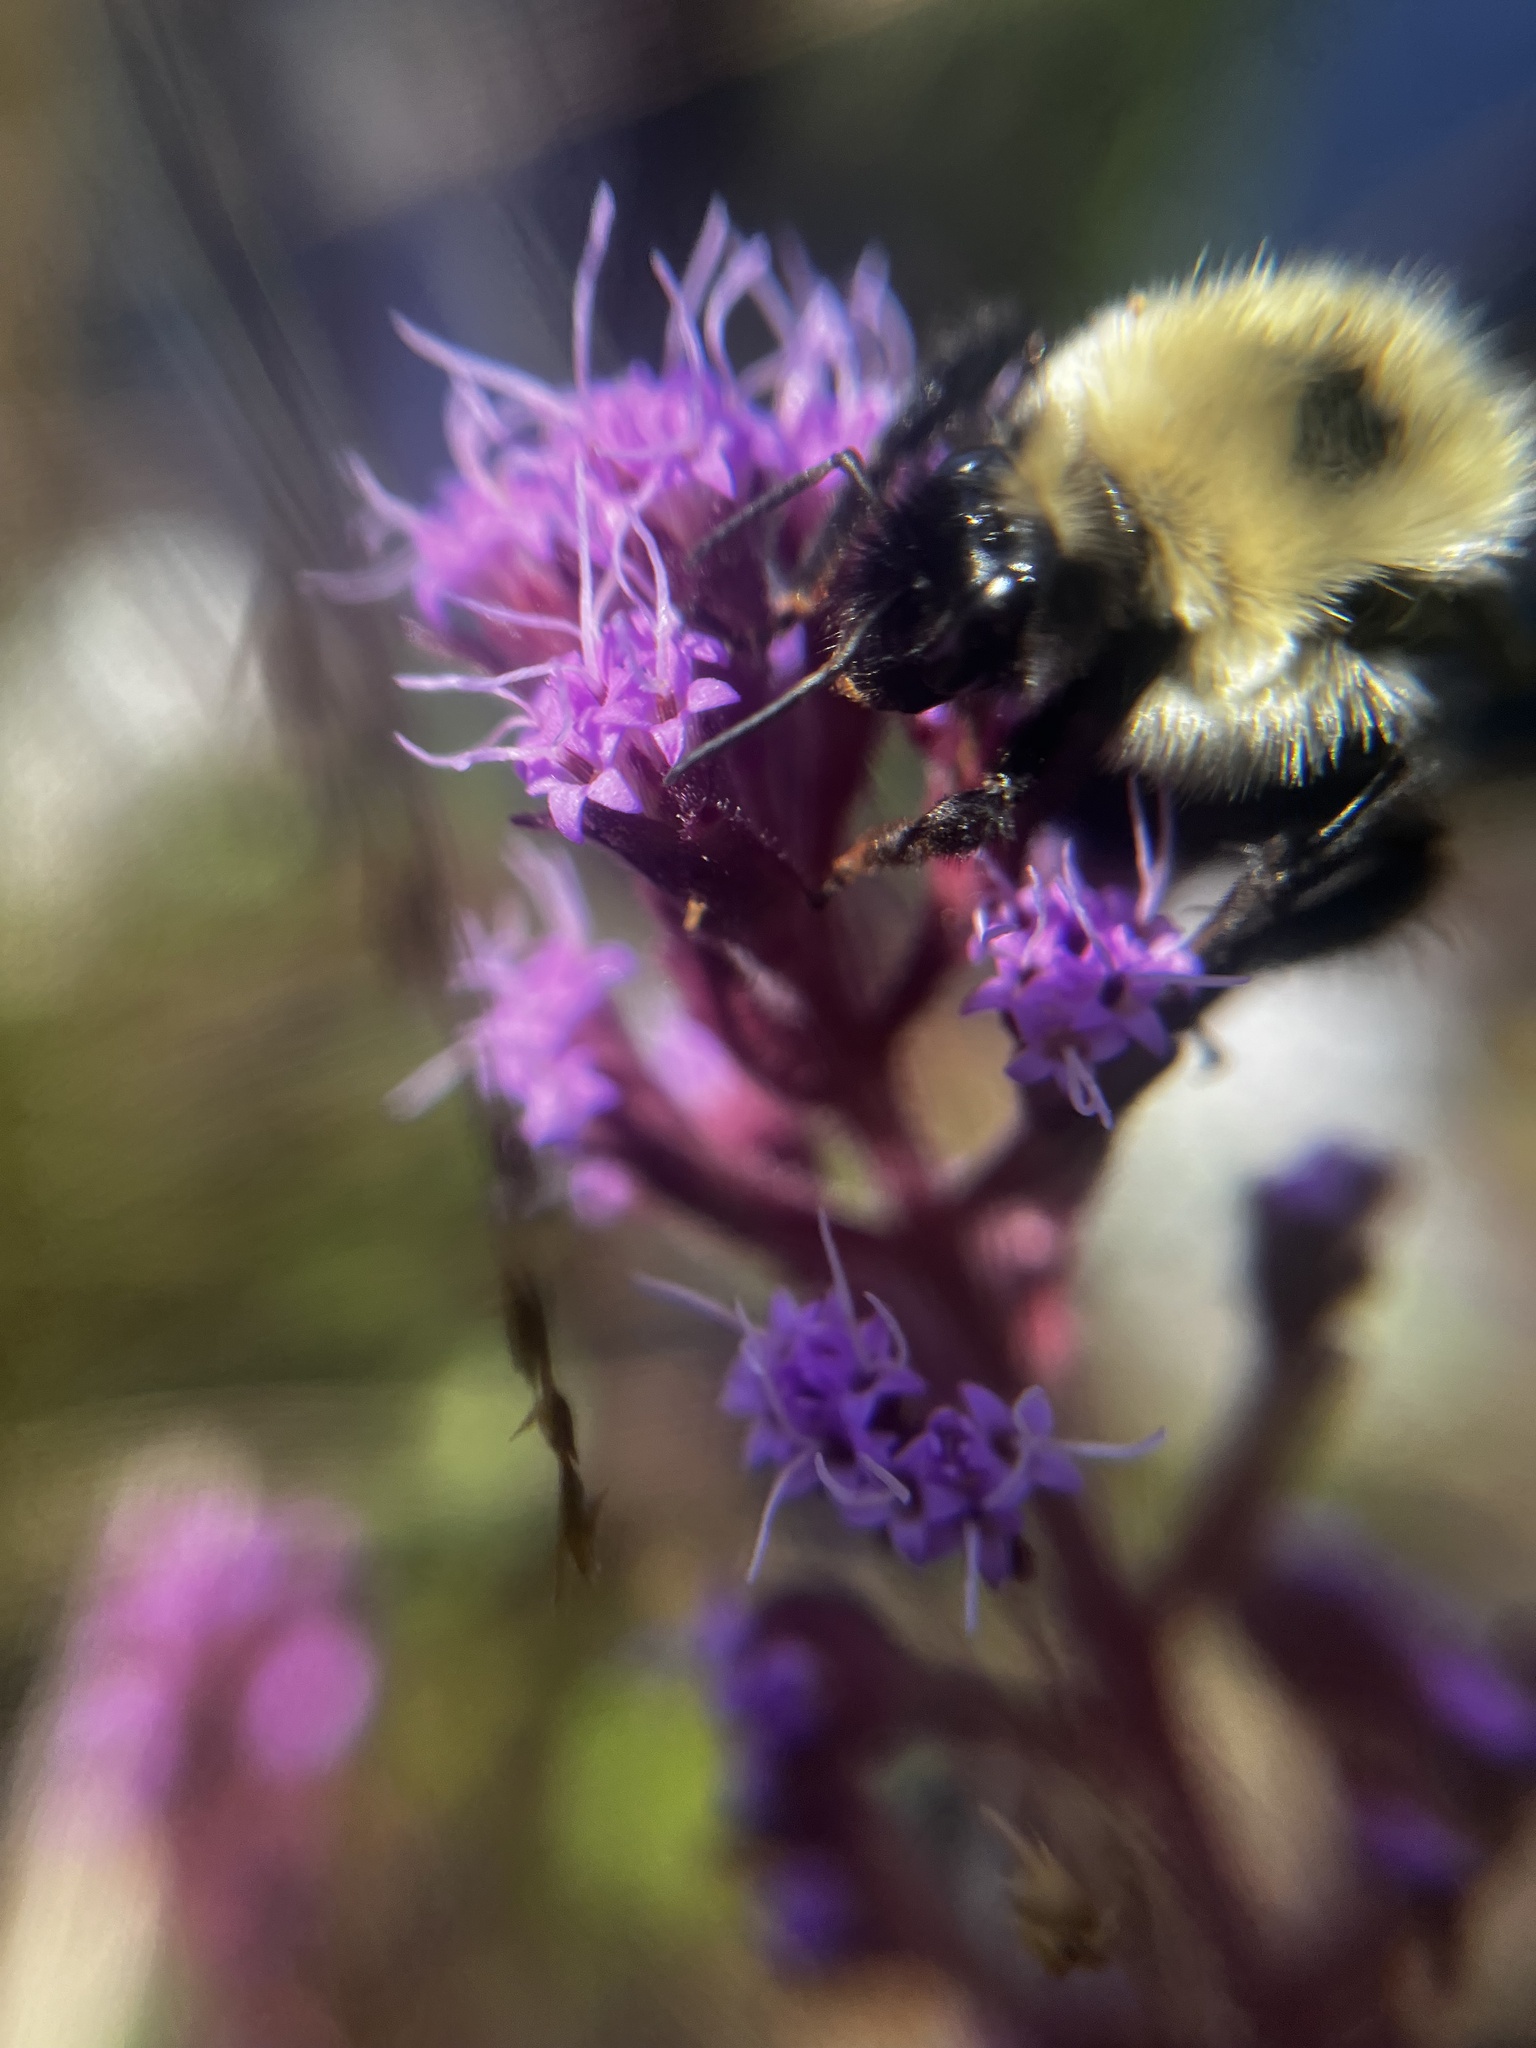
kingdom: Animalia
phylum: Arthropoda
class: Insecta
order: Hymenoptera
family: Apidae
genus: Bombus
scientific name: Bombus bimaculatus
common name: Two-spotted bumble bee
